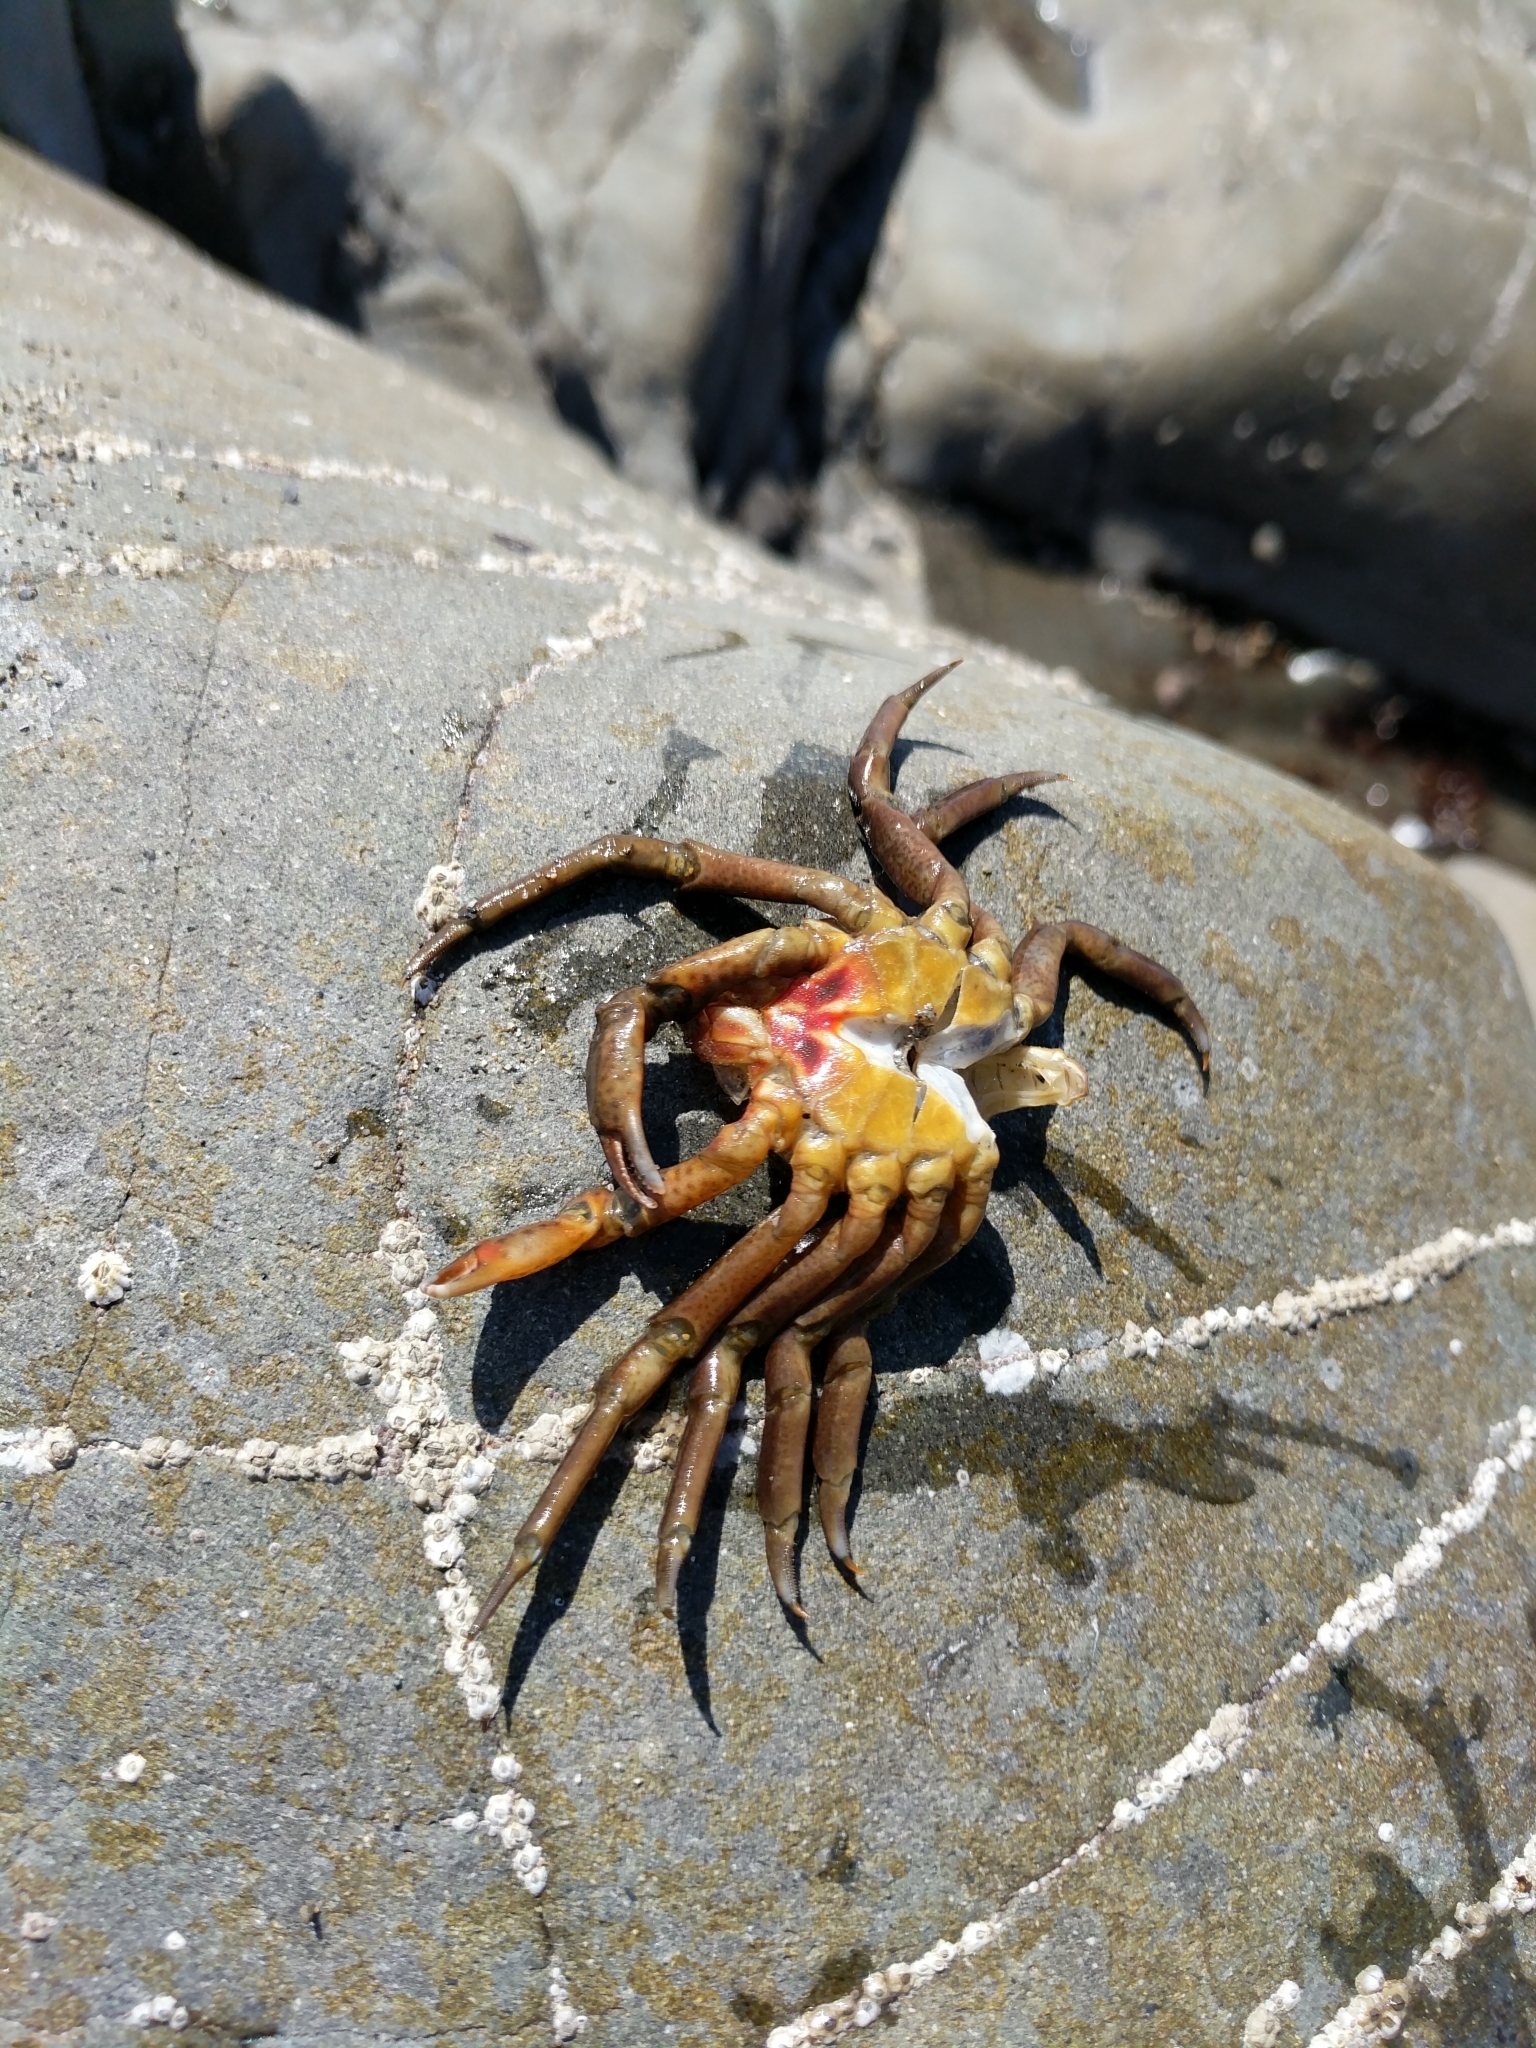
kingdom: Animalia
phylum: Arthropoda
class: Malacostraca
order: Decapoda
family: Epialtidae
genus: Pugettia
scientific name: Pugettia producta
